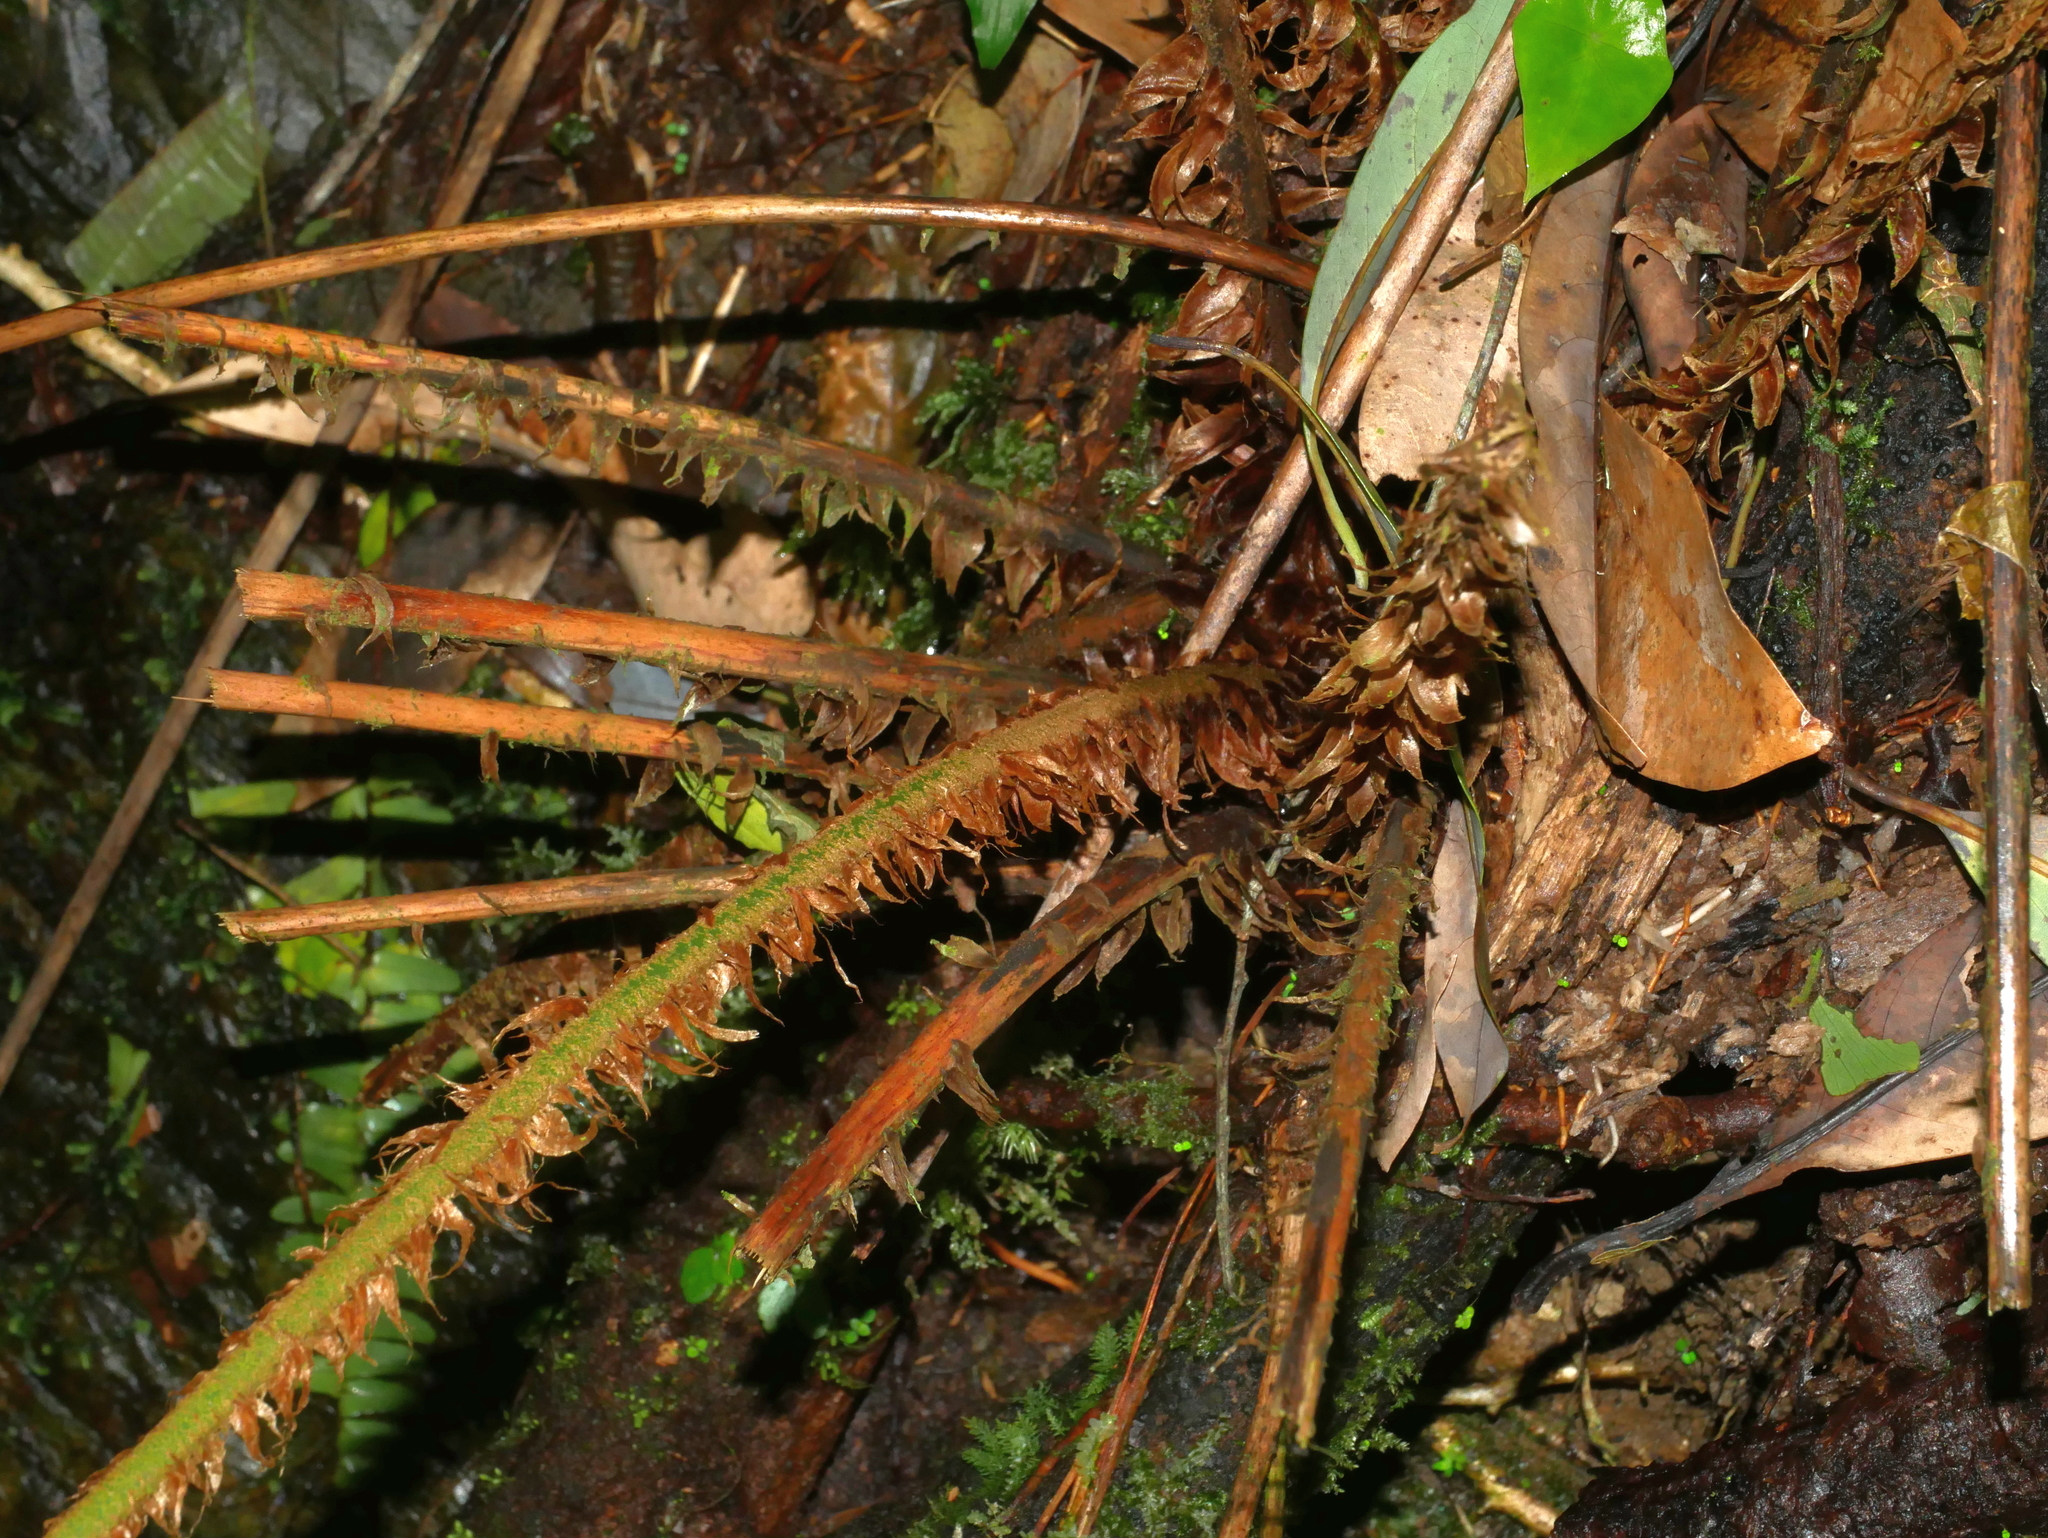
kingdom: Plantae
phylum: Tracheophyta
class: Polypodiopsida
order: Polypodiales
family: Dryopteridaceae
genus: Polystichum
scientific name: Polystichum scariosum
